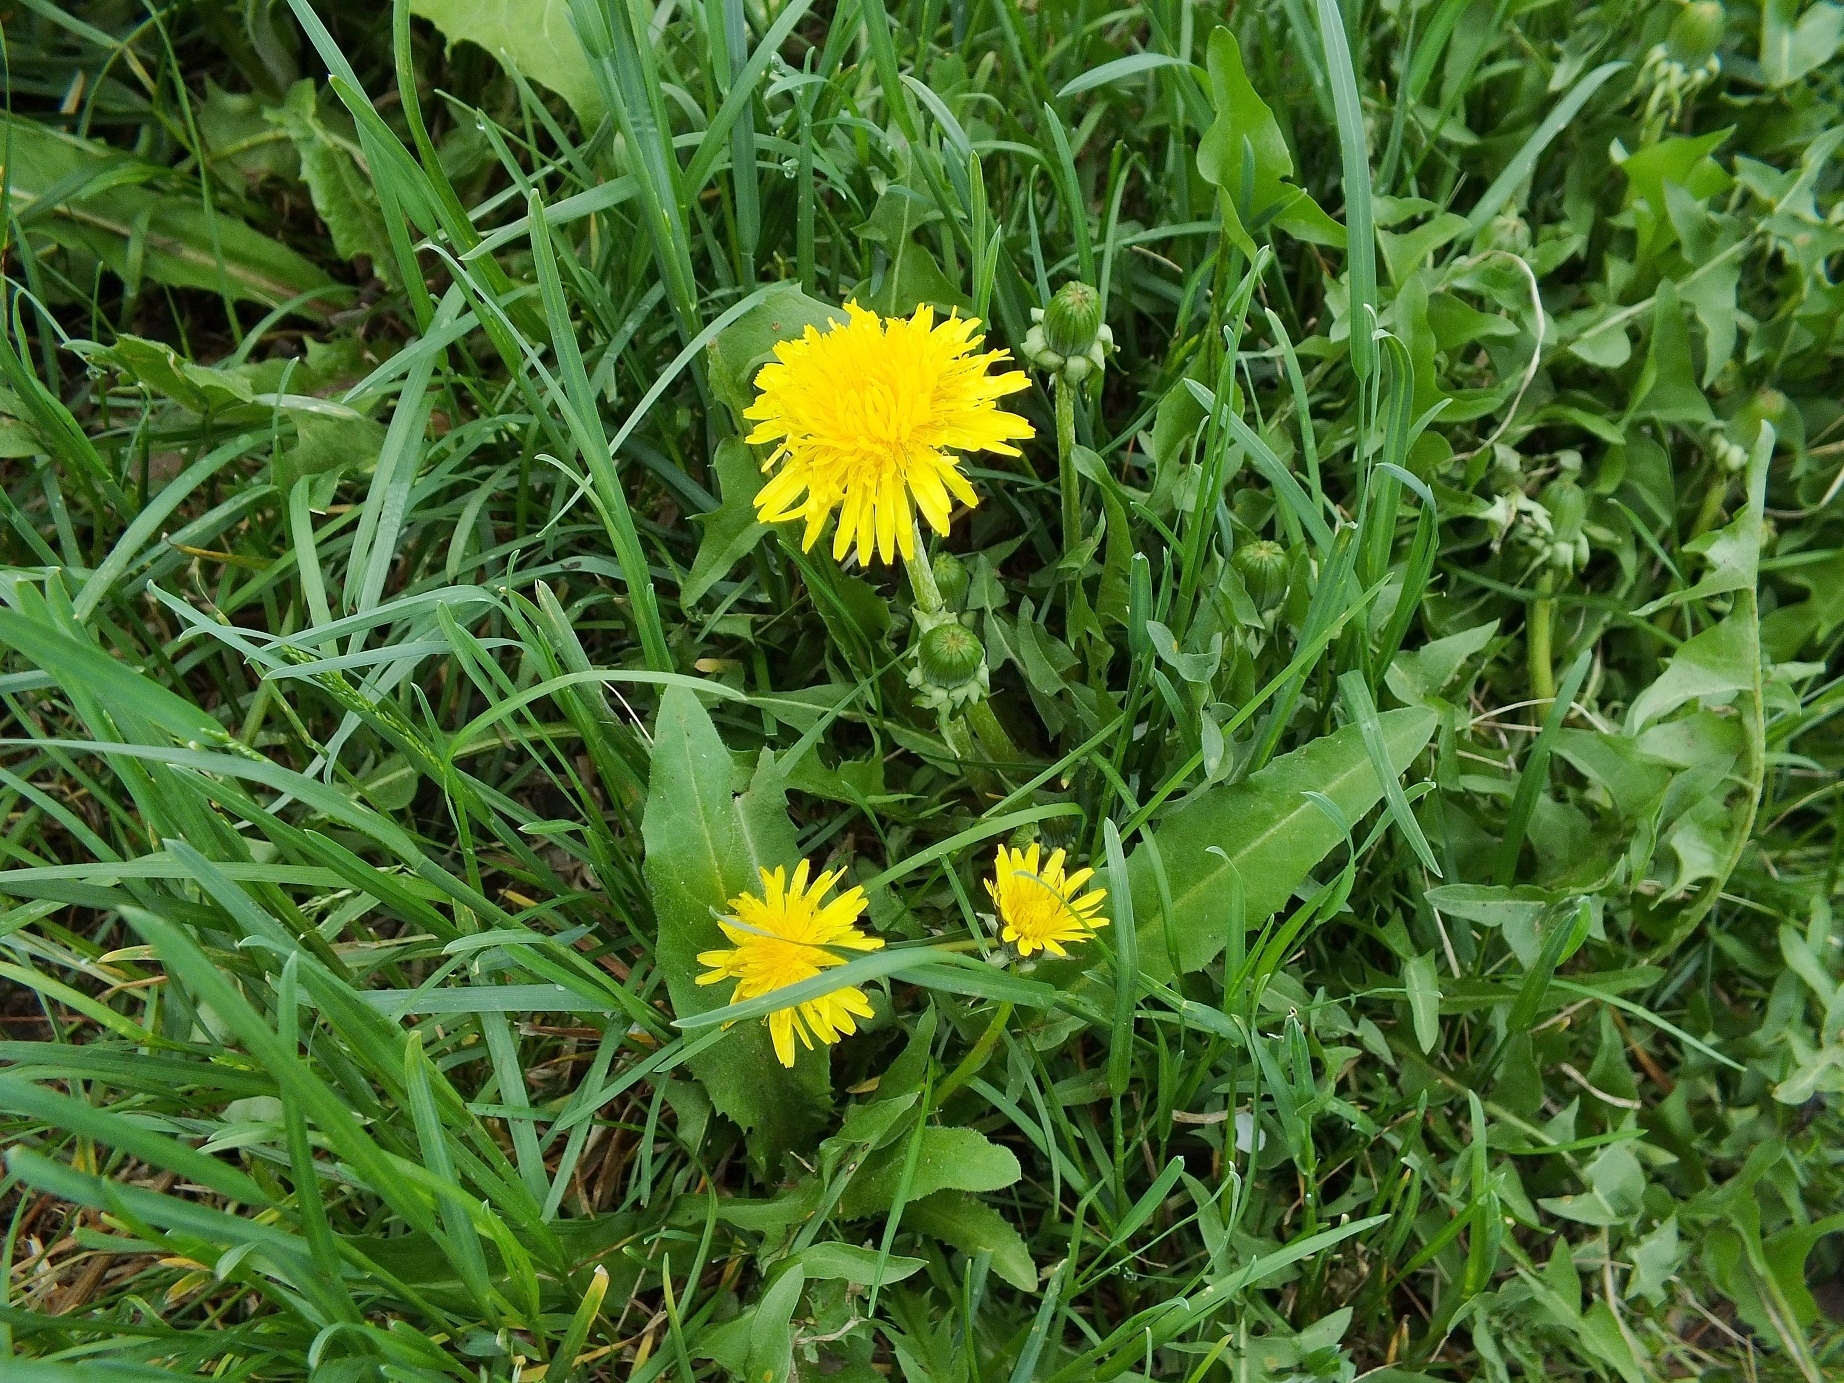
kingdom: Plantae
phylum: Tracheophyta
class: Magnoliopsida
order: Asterales
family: Asteraceae
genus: Taraxacum
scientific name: Taraxacum officinale
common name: Common dandelion
